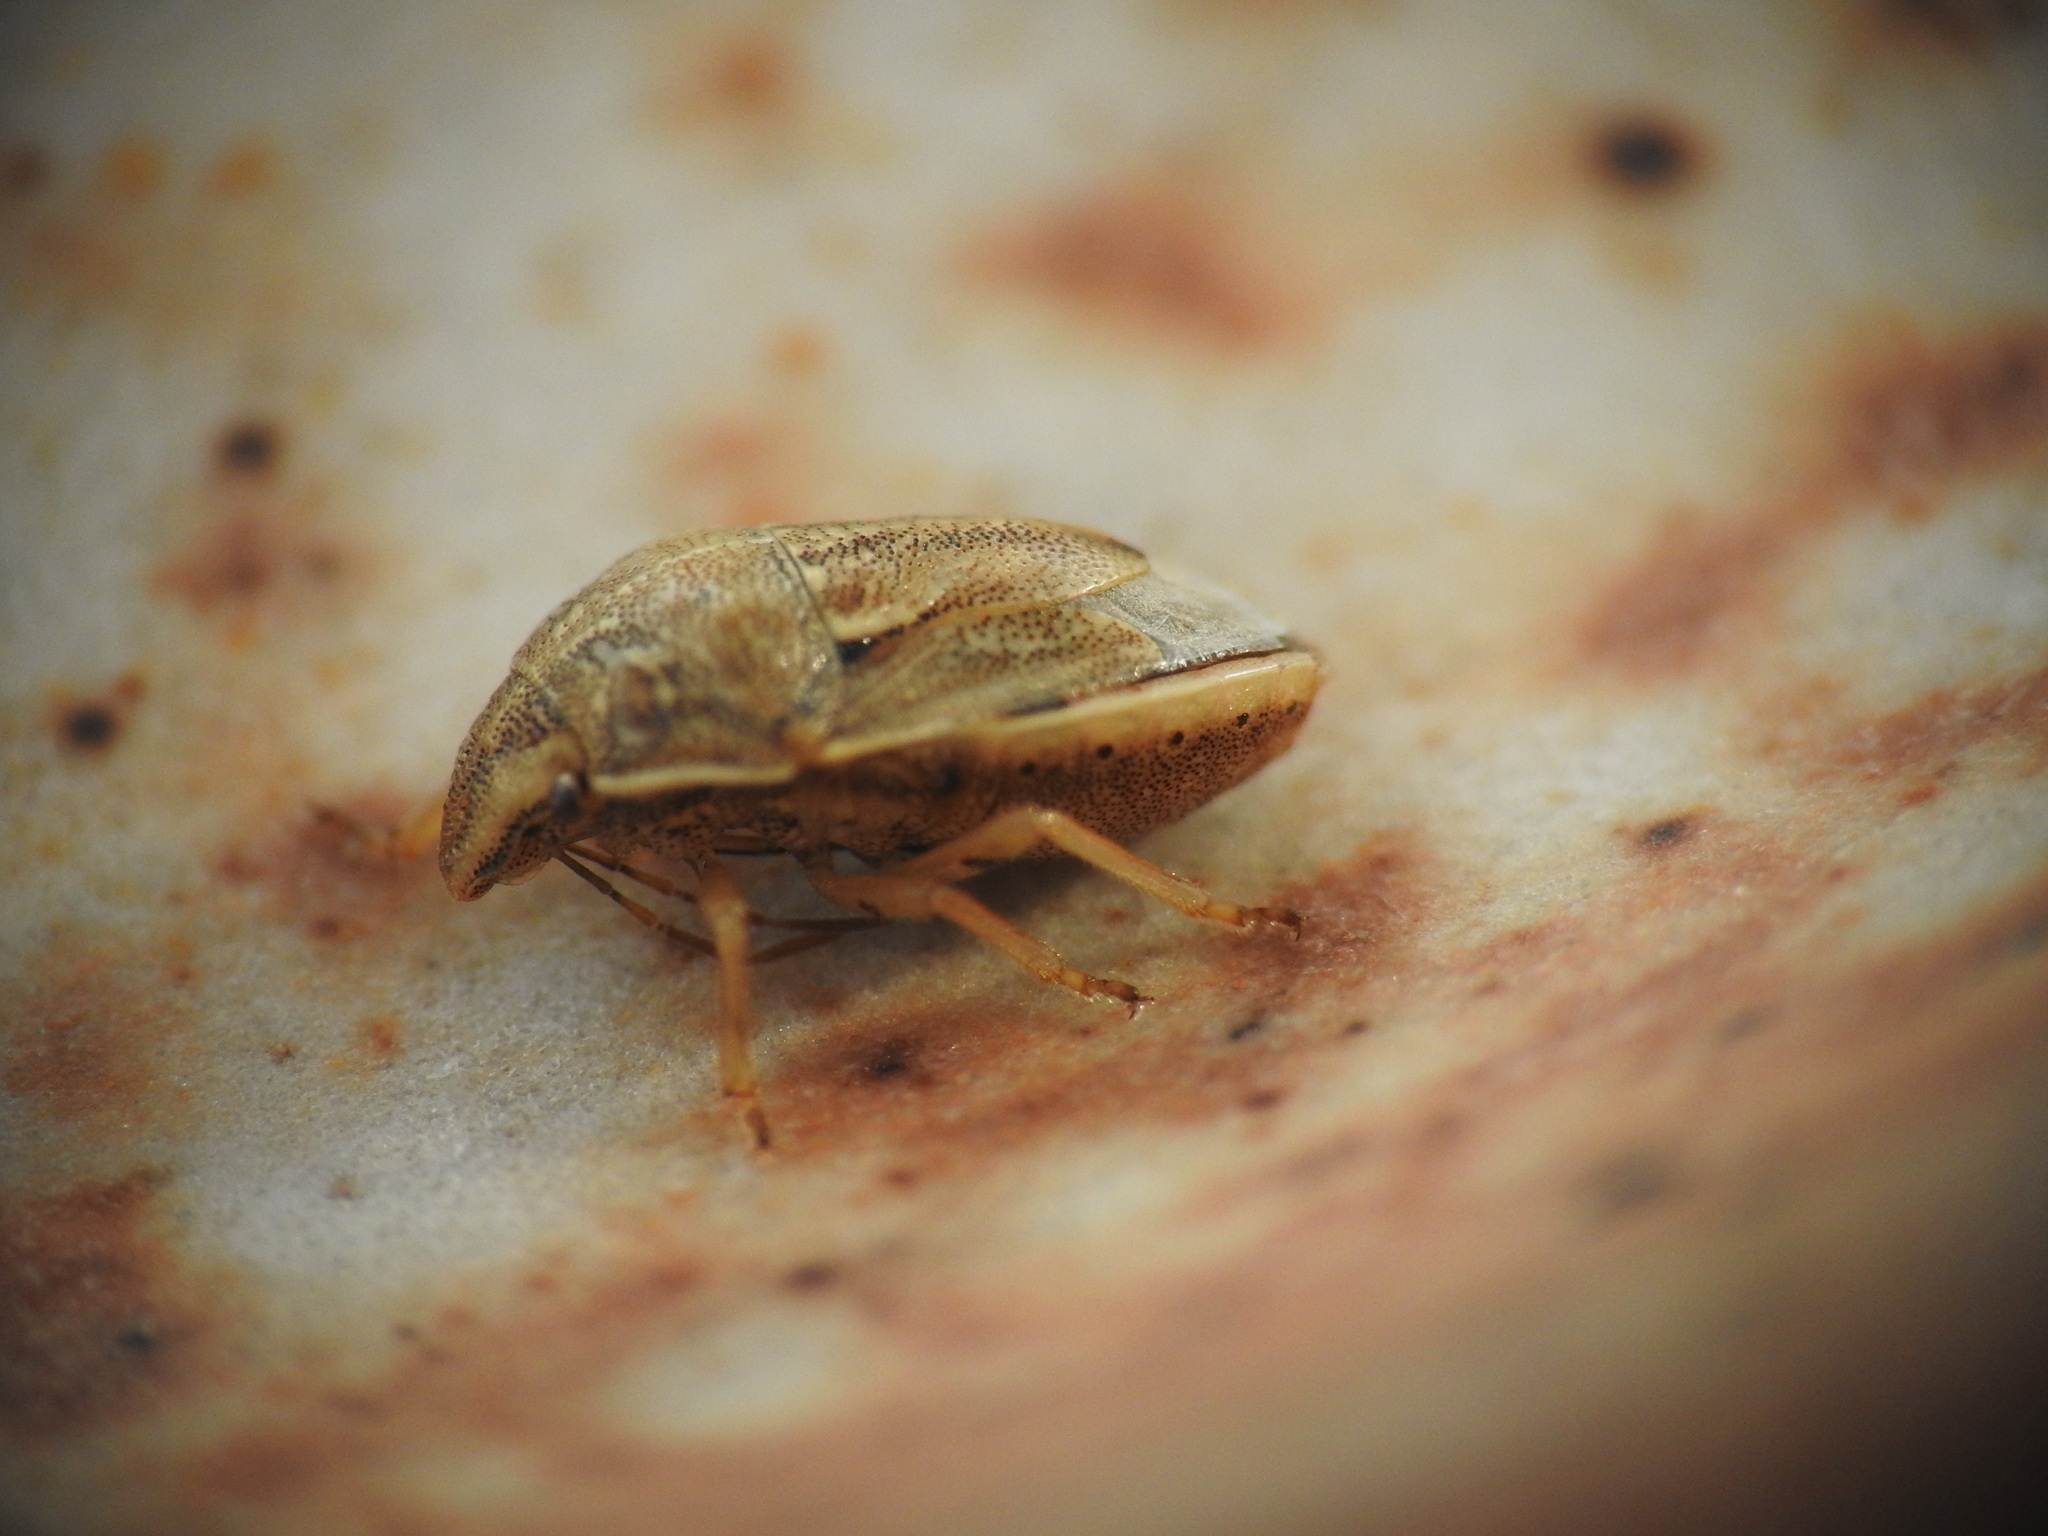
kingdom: Animalia
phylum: Arthropoda
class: Insecta
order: Hemiptera
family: Pentatomidae
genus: Neottiglossa
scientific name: Neottiglossa bifida
